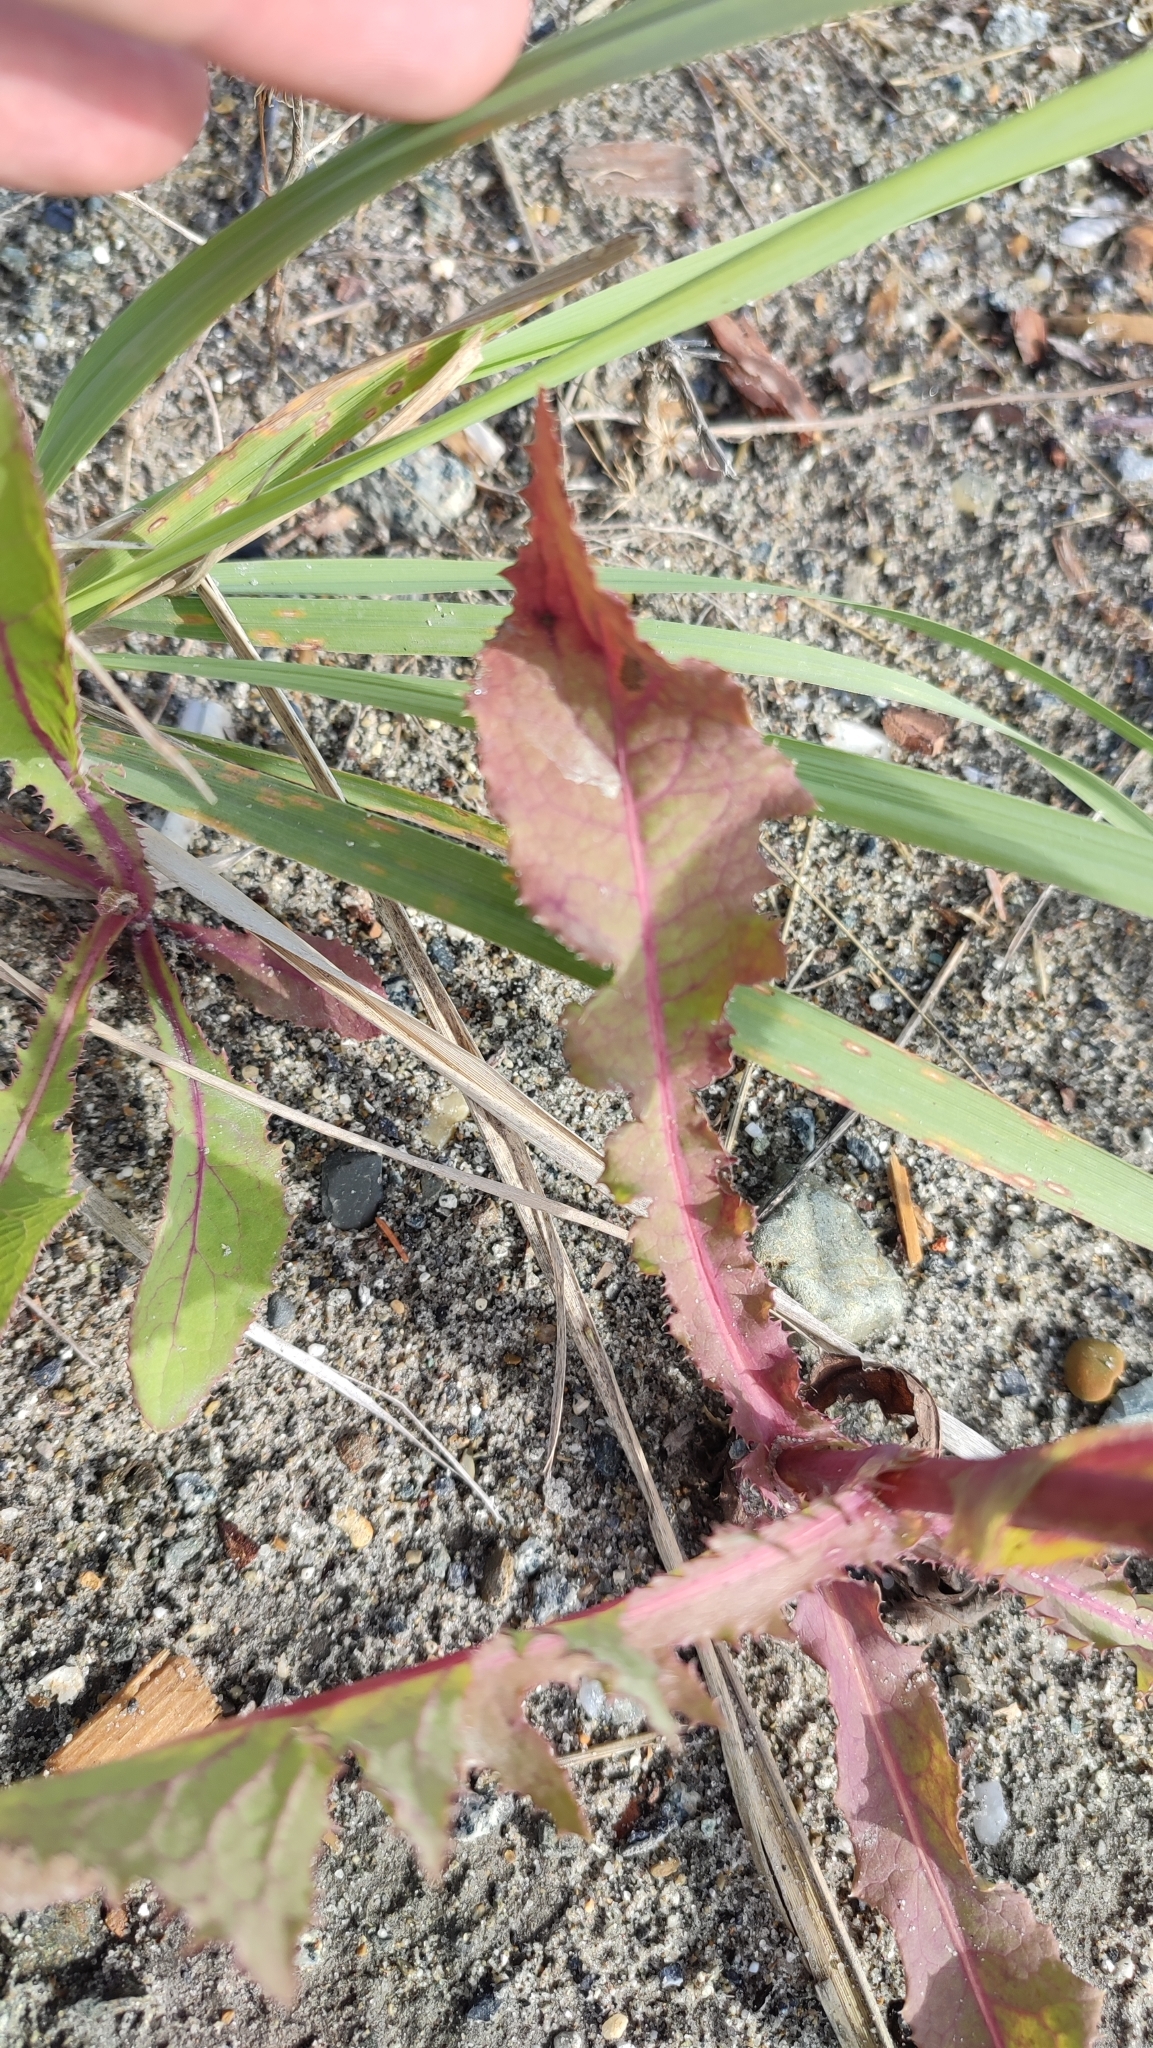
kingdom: Plantae
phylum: Tracheophyta
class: Magnoliopsida
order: Asterales
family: Asteraceae
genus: Sonchus
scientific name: Sonchus arvensis
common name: Perennial sow-thistle
